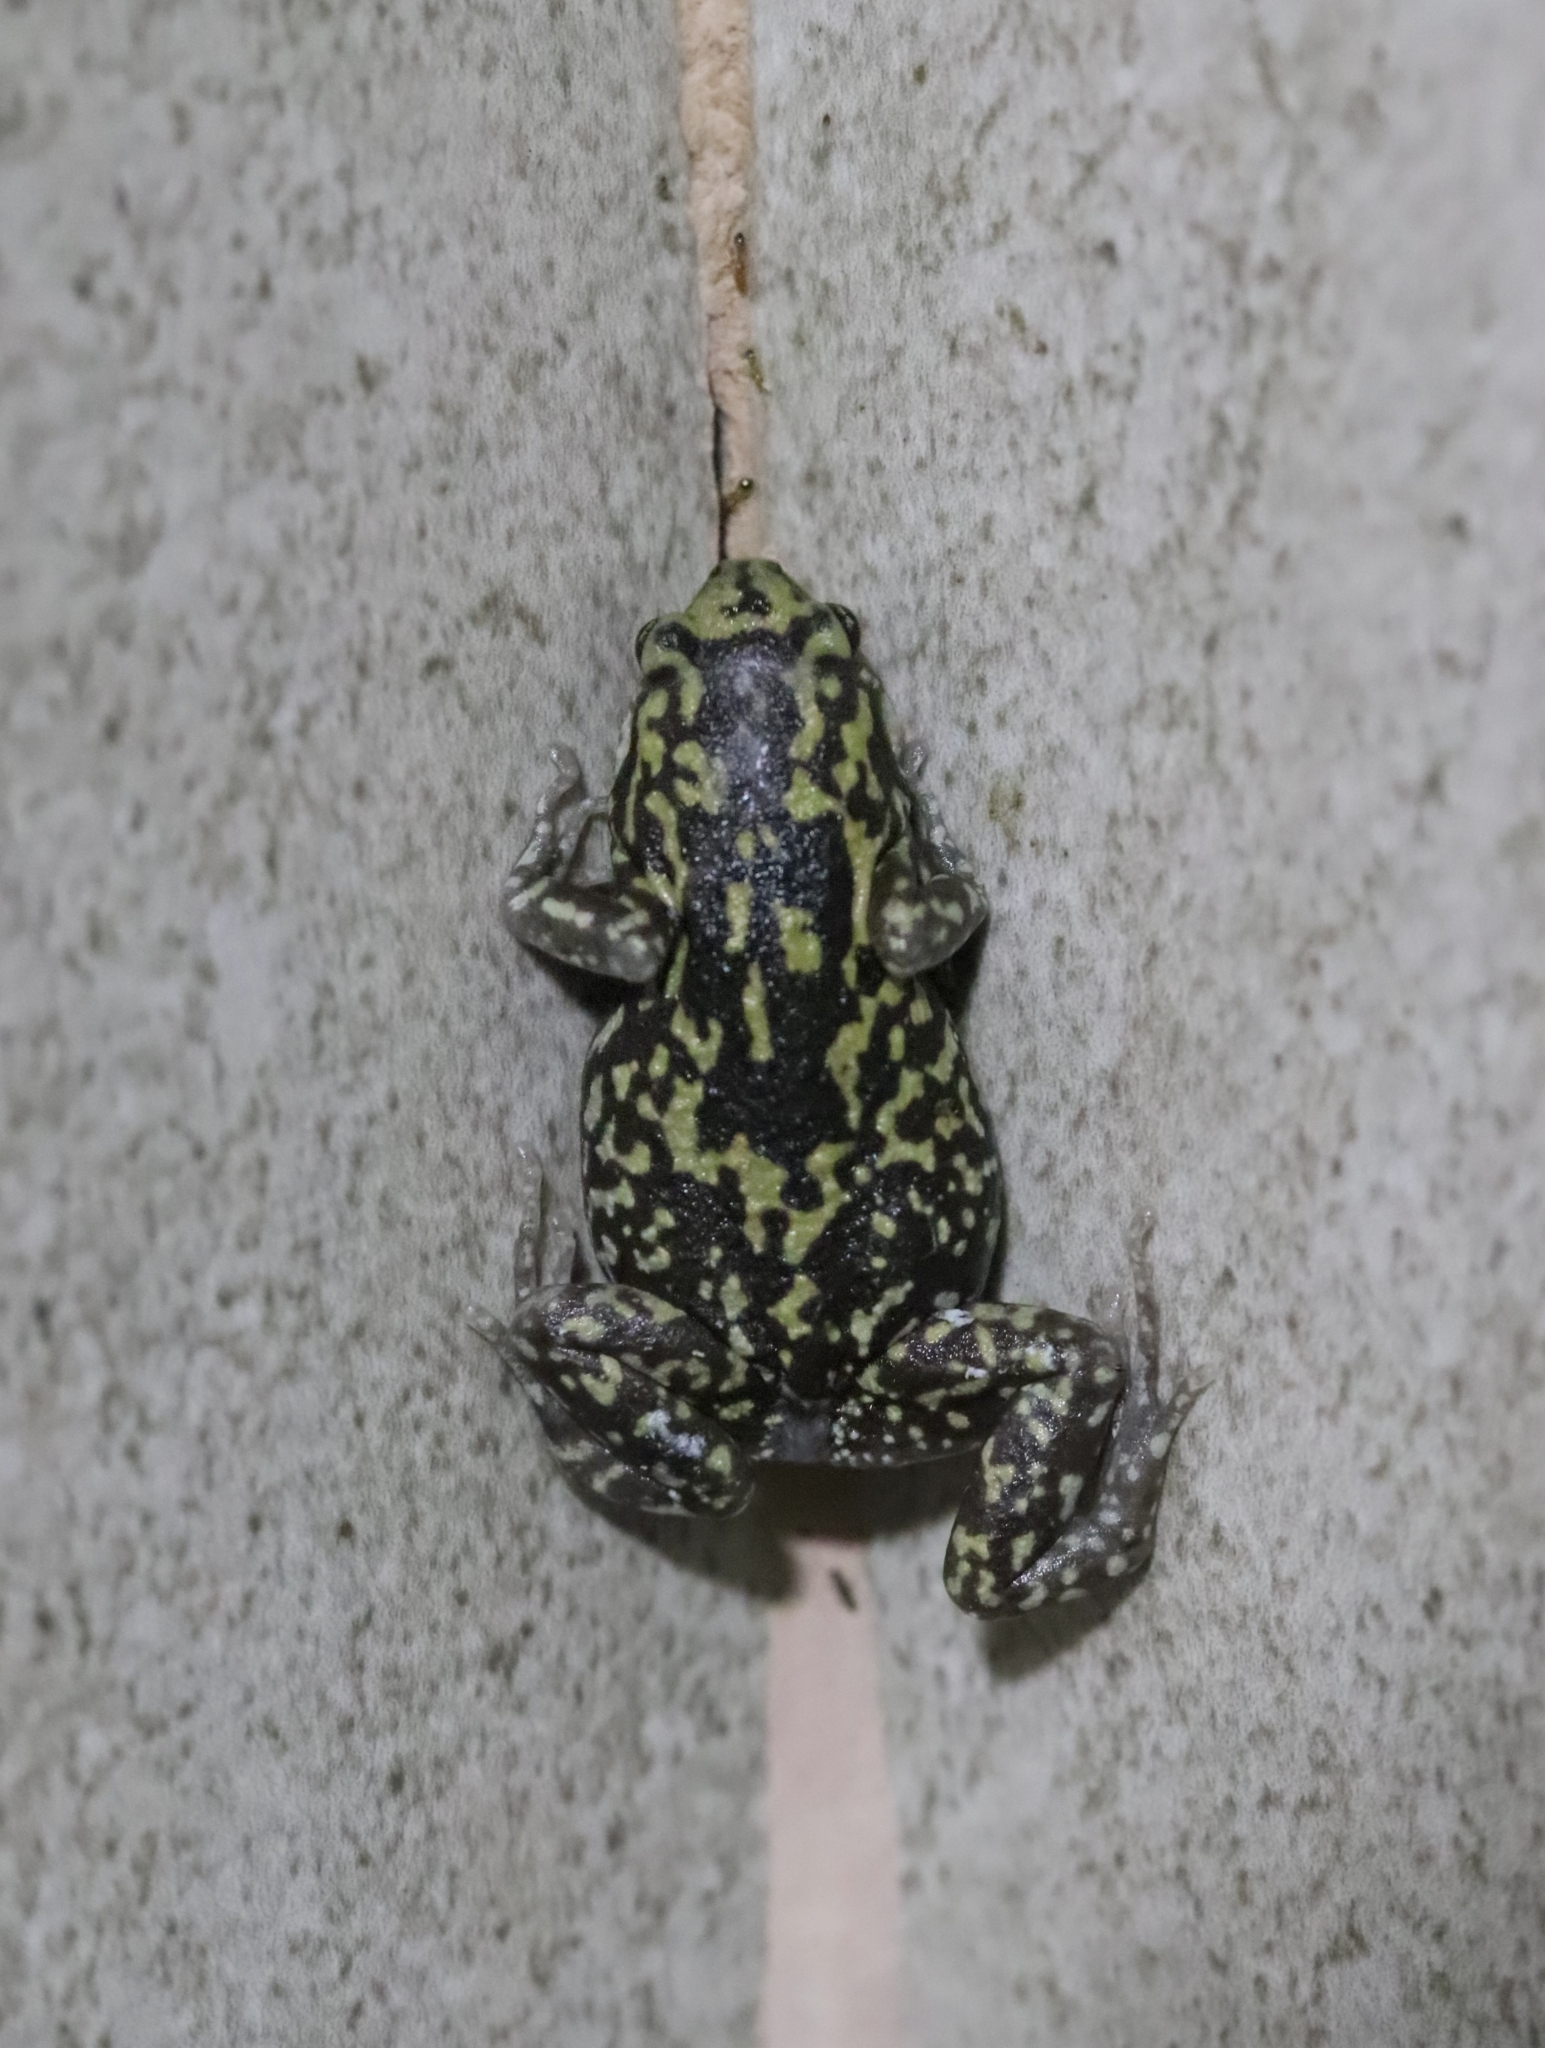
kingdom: Animalia
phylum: Chordata
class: Amphibia
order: Anura
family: Microhylidae
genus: Uperodon
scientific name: Uperodon rohani
